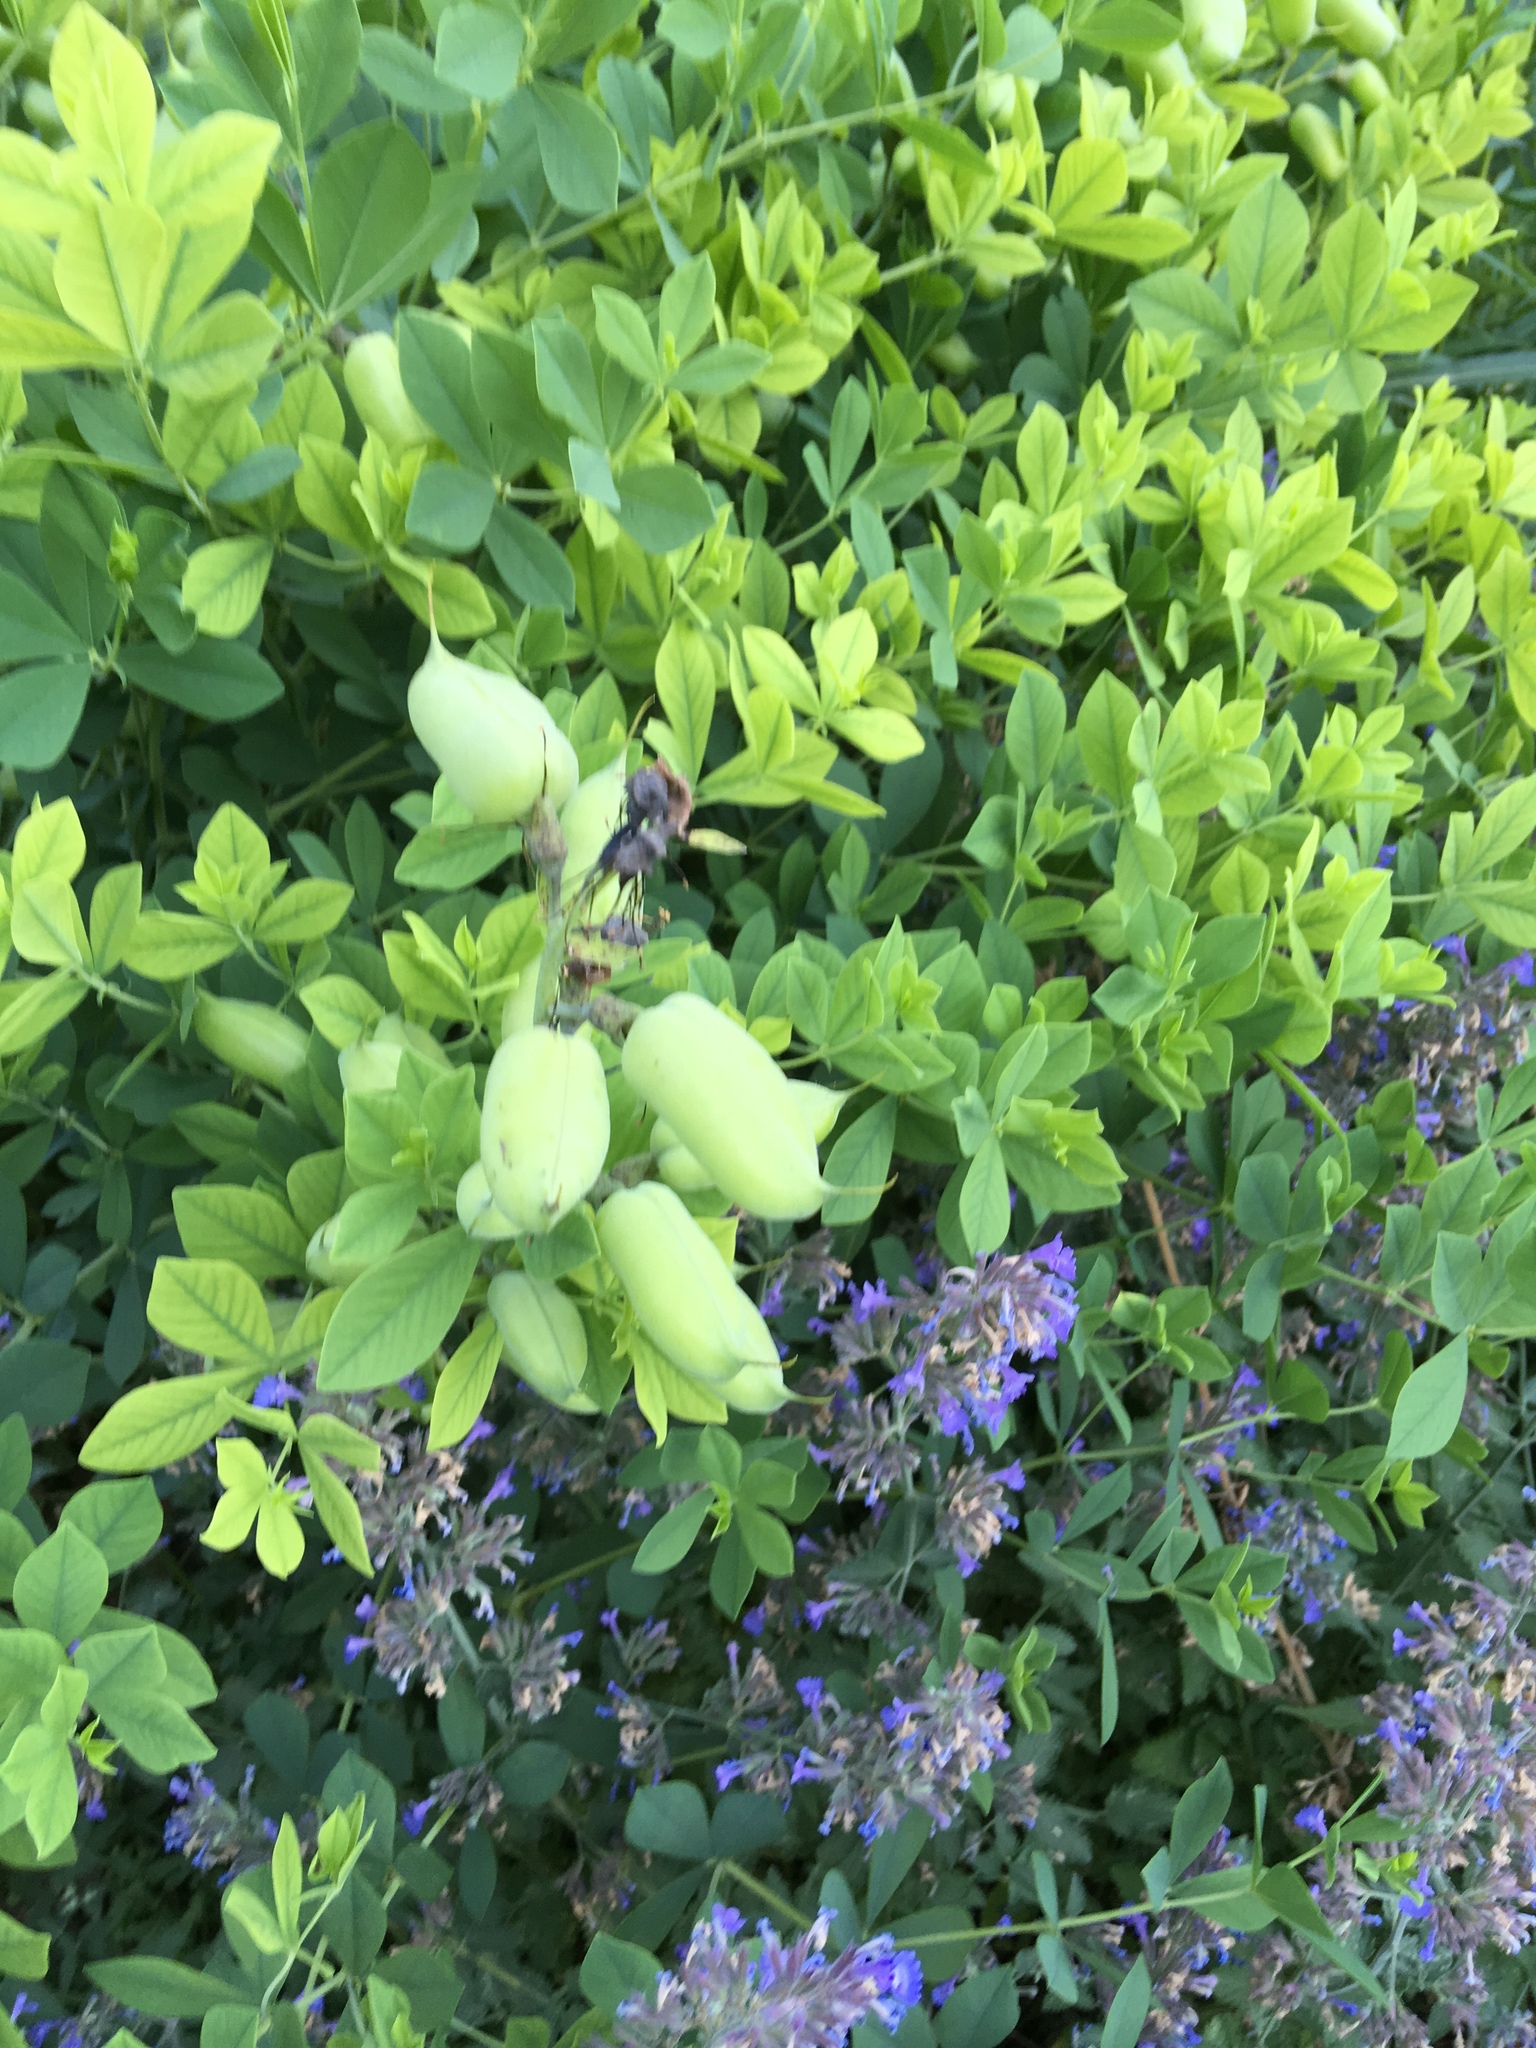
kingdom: Plantae
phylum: Tracheophyta
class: Magnoliopsida
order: Fabales
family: Fabaceae
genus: Baptisia
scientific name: Baptisia australis
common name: Blue false indigo
